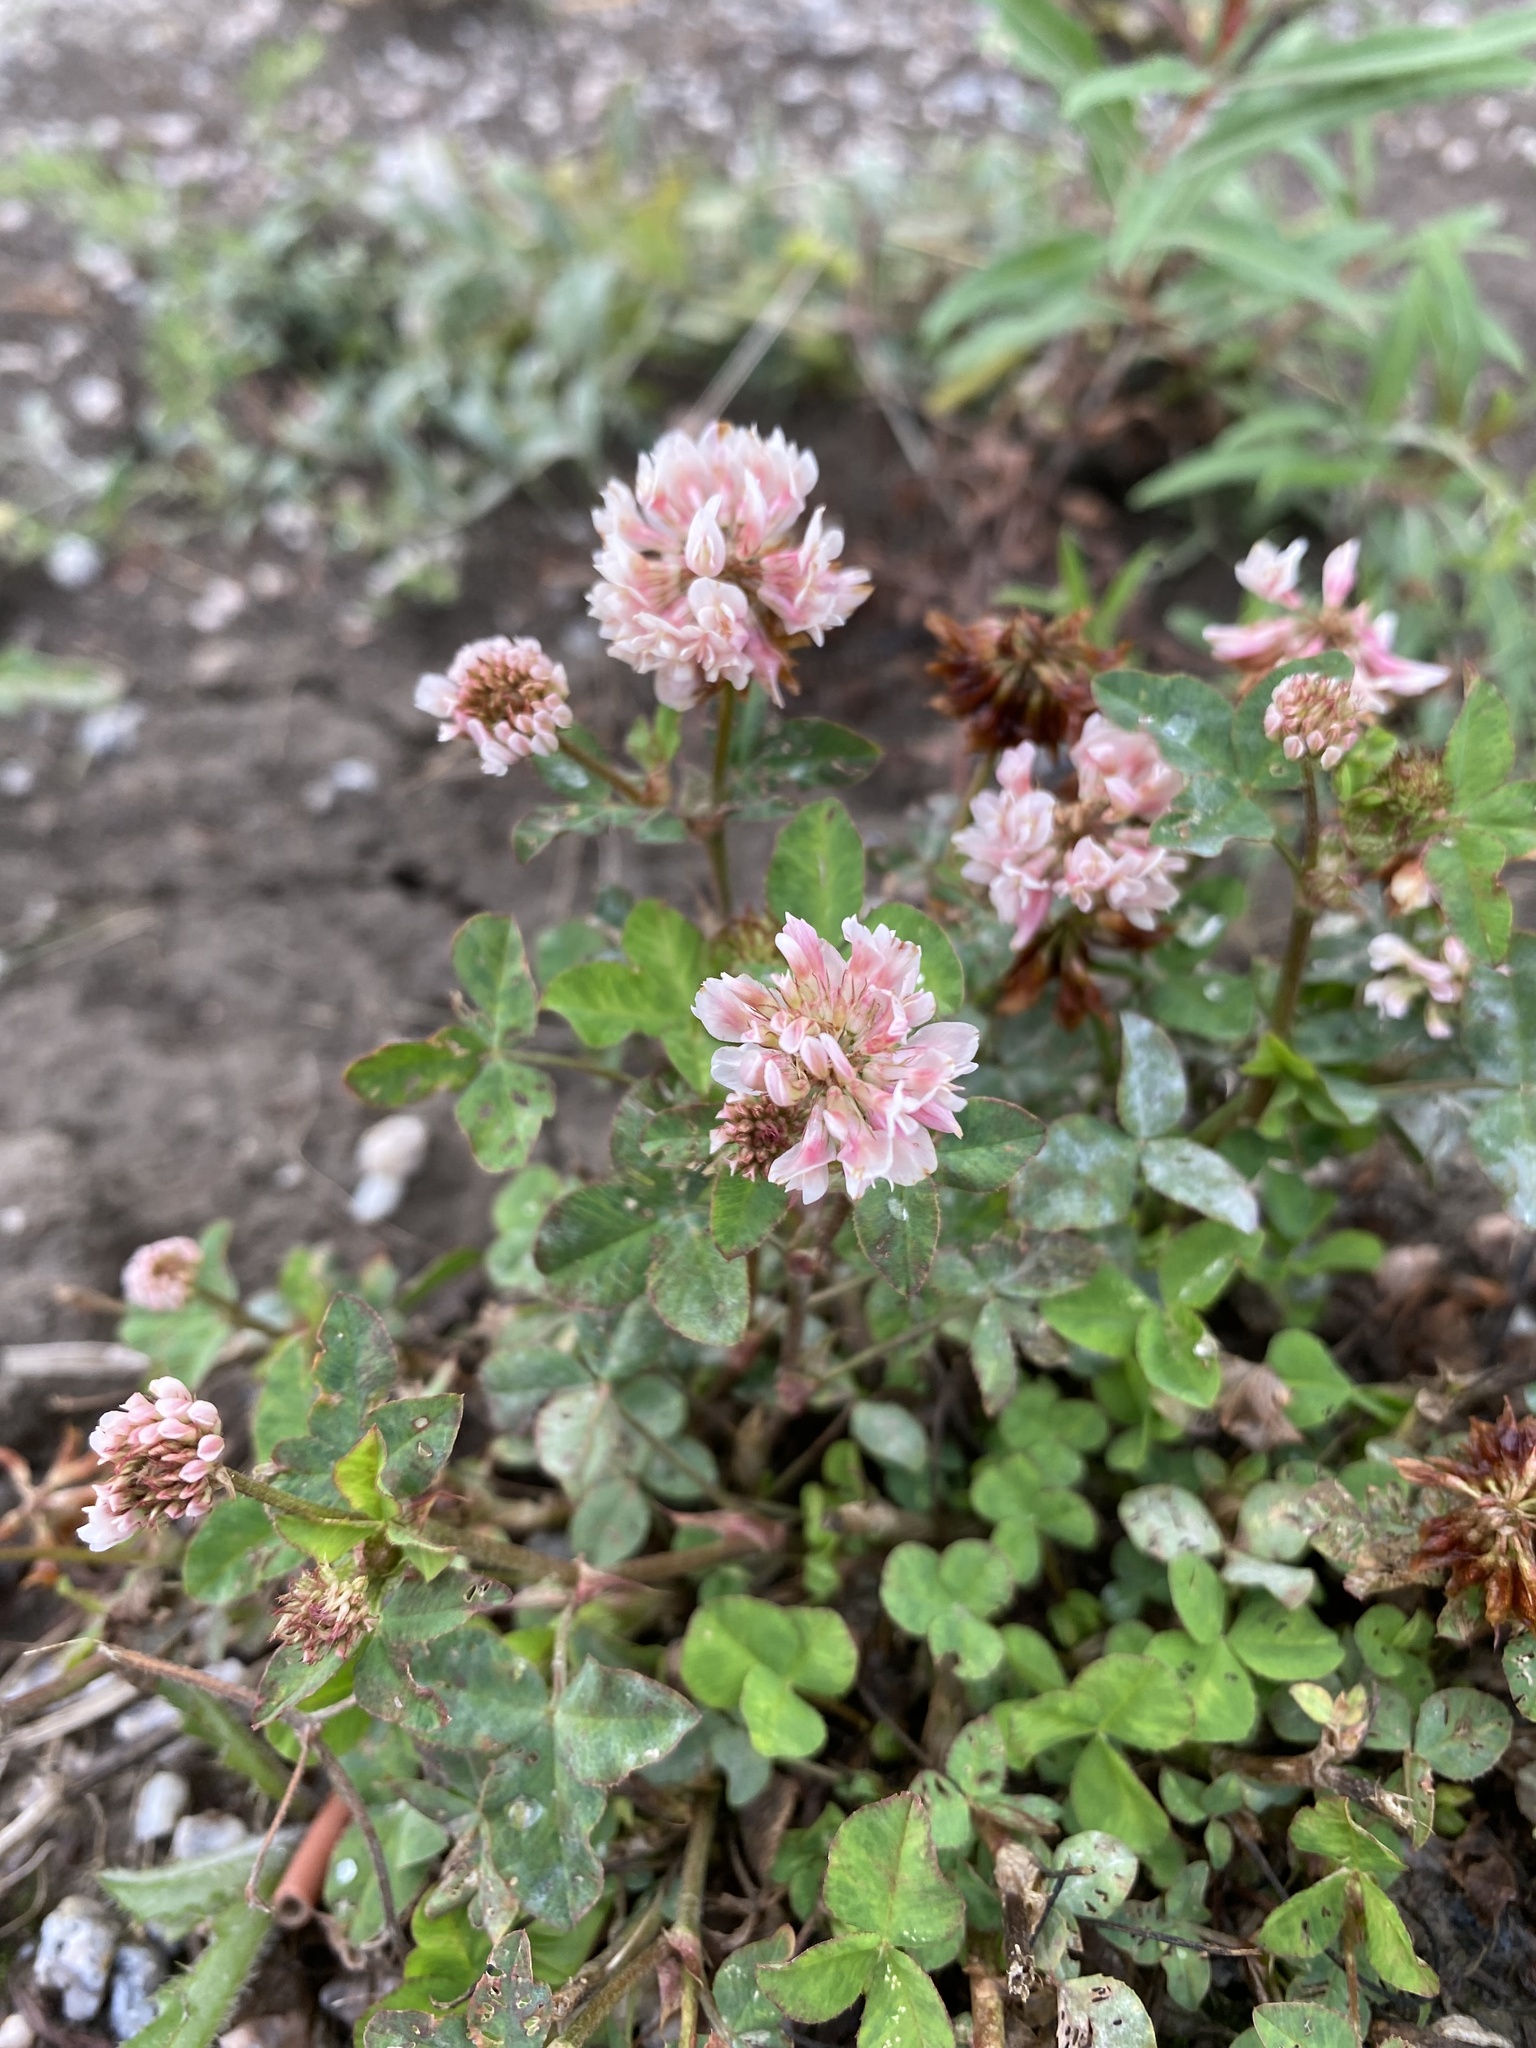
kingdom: Plantae
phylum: Tracheophyta
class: Magnoliopsida
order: Fabales
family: Fabaceae
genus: Trifolium
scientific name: Trifolium hybridum
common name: Alsike clover
